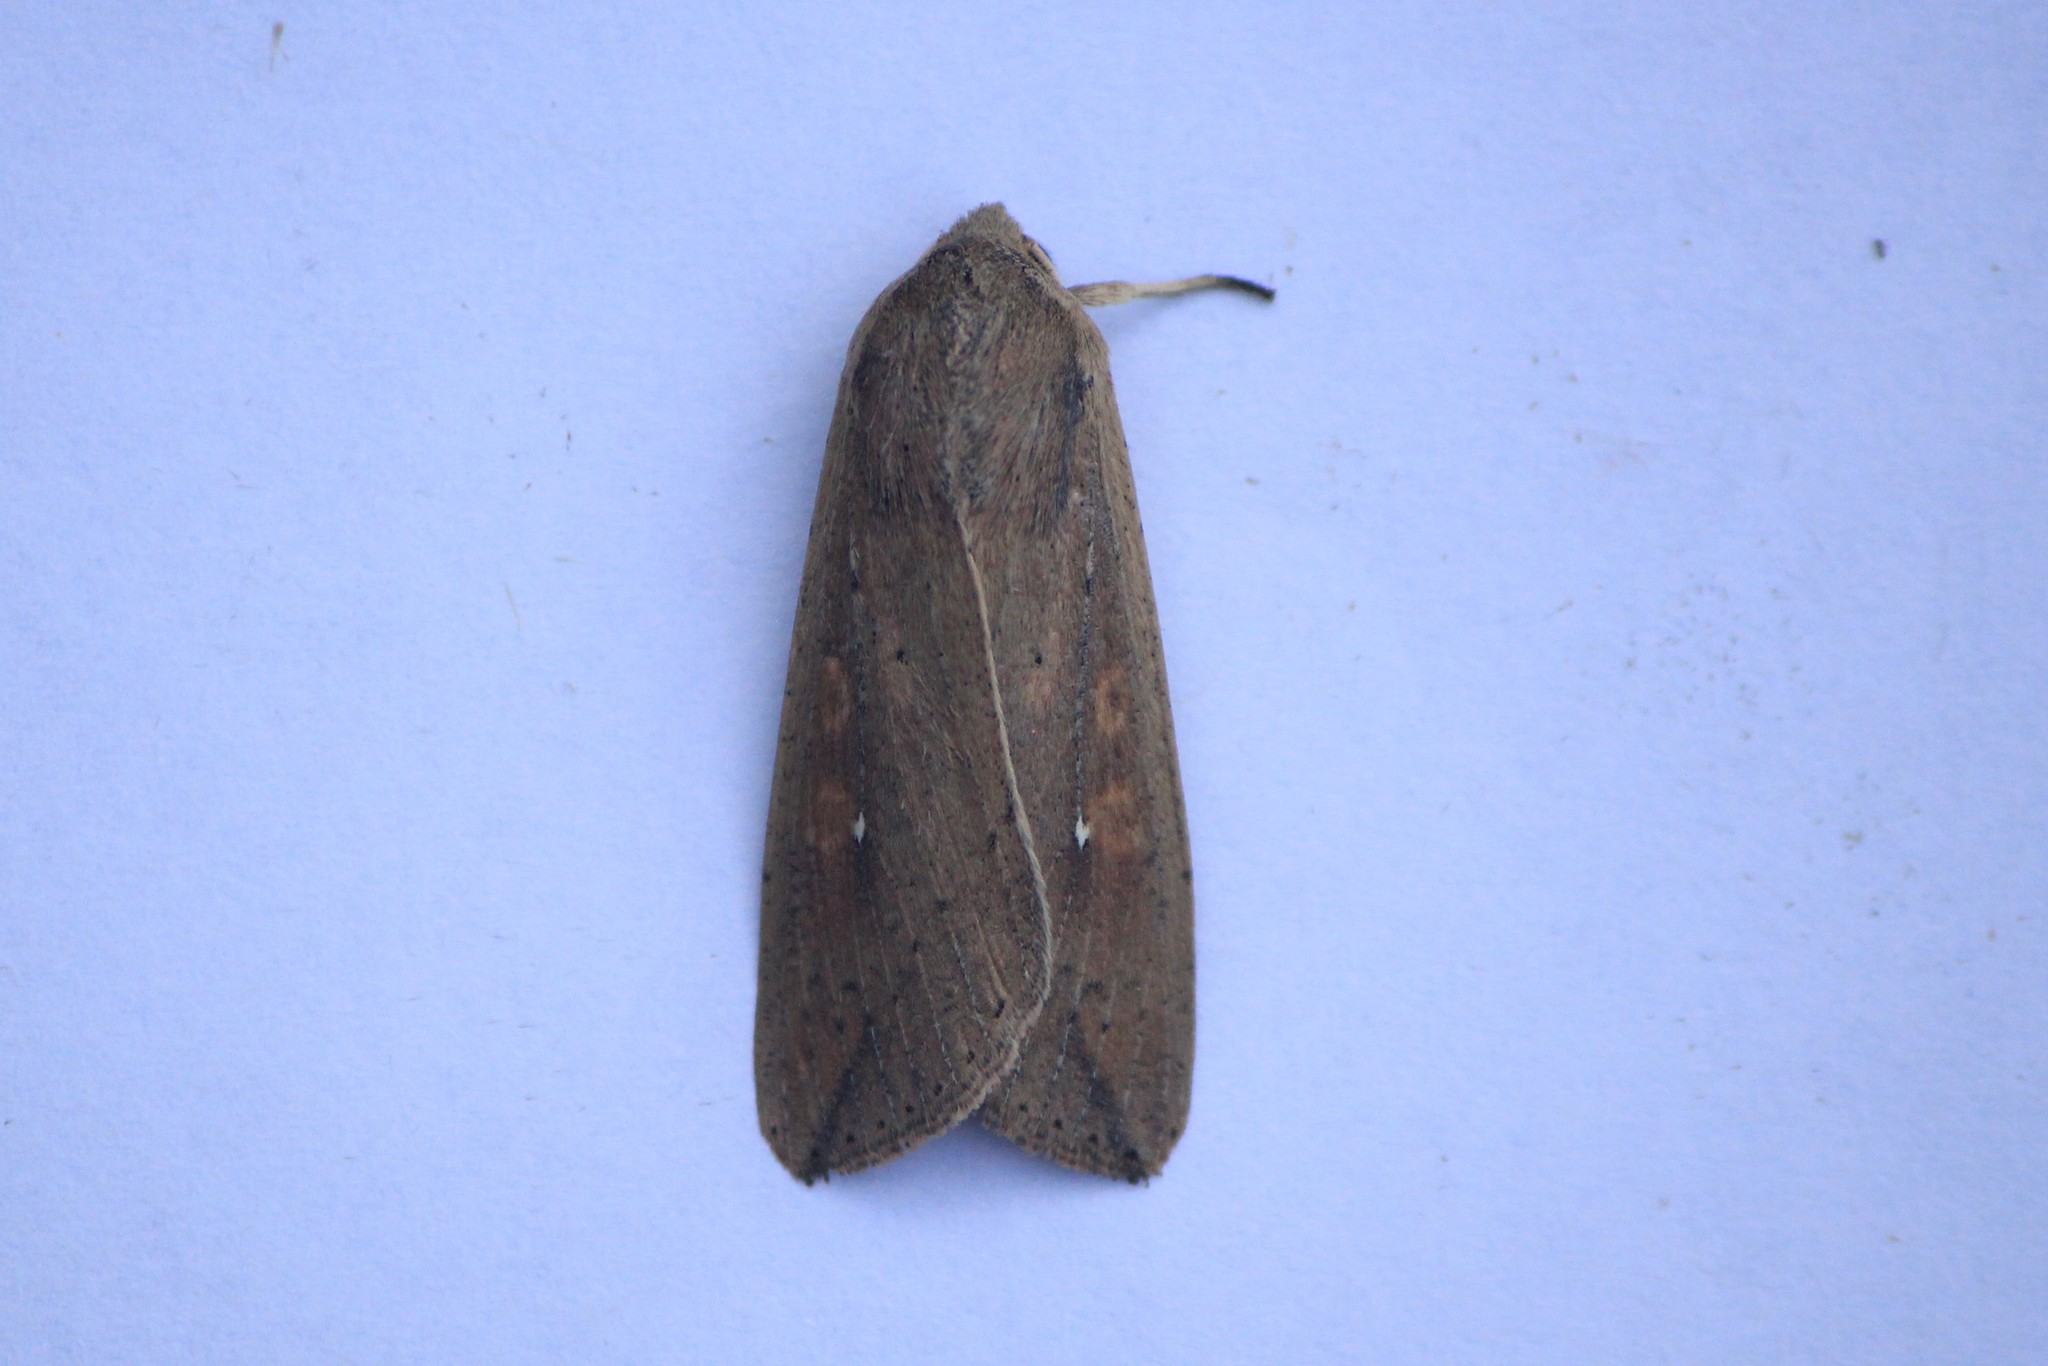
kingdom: Animalia
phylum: Arthropoda
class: Insecta
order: Lepidoptera
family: Noctuidae
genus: Mythimna
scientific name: Mythimna unipuncta
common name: White-speck
